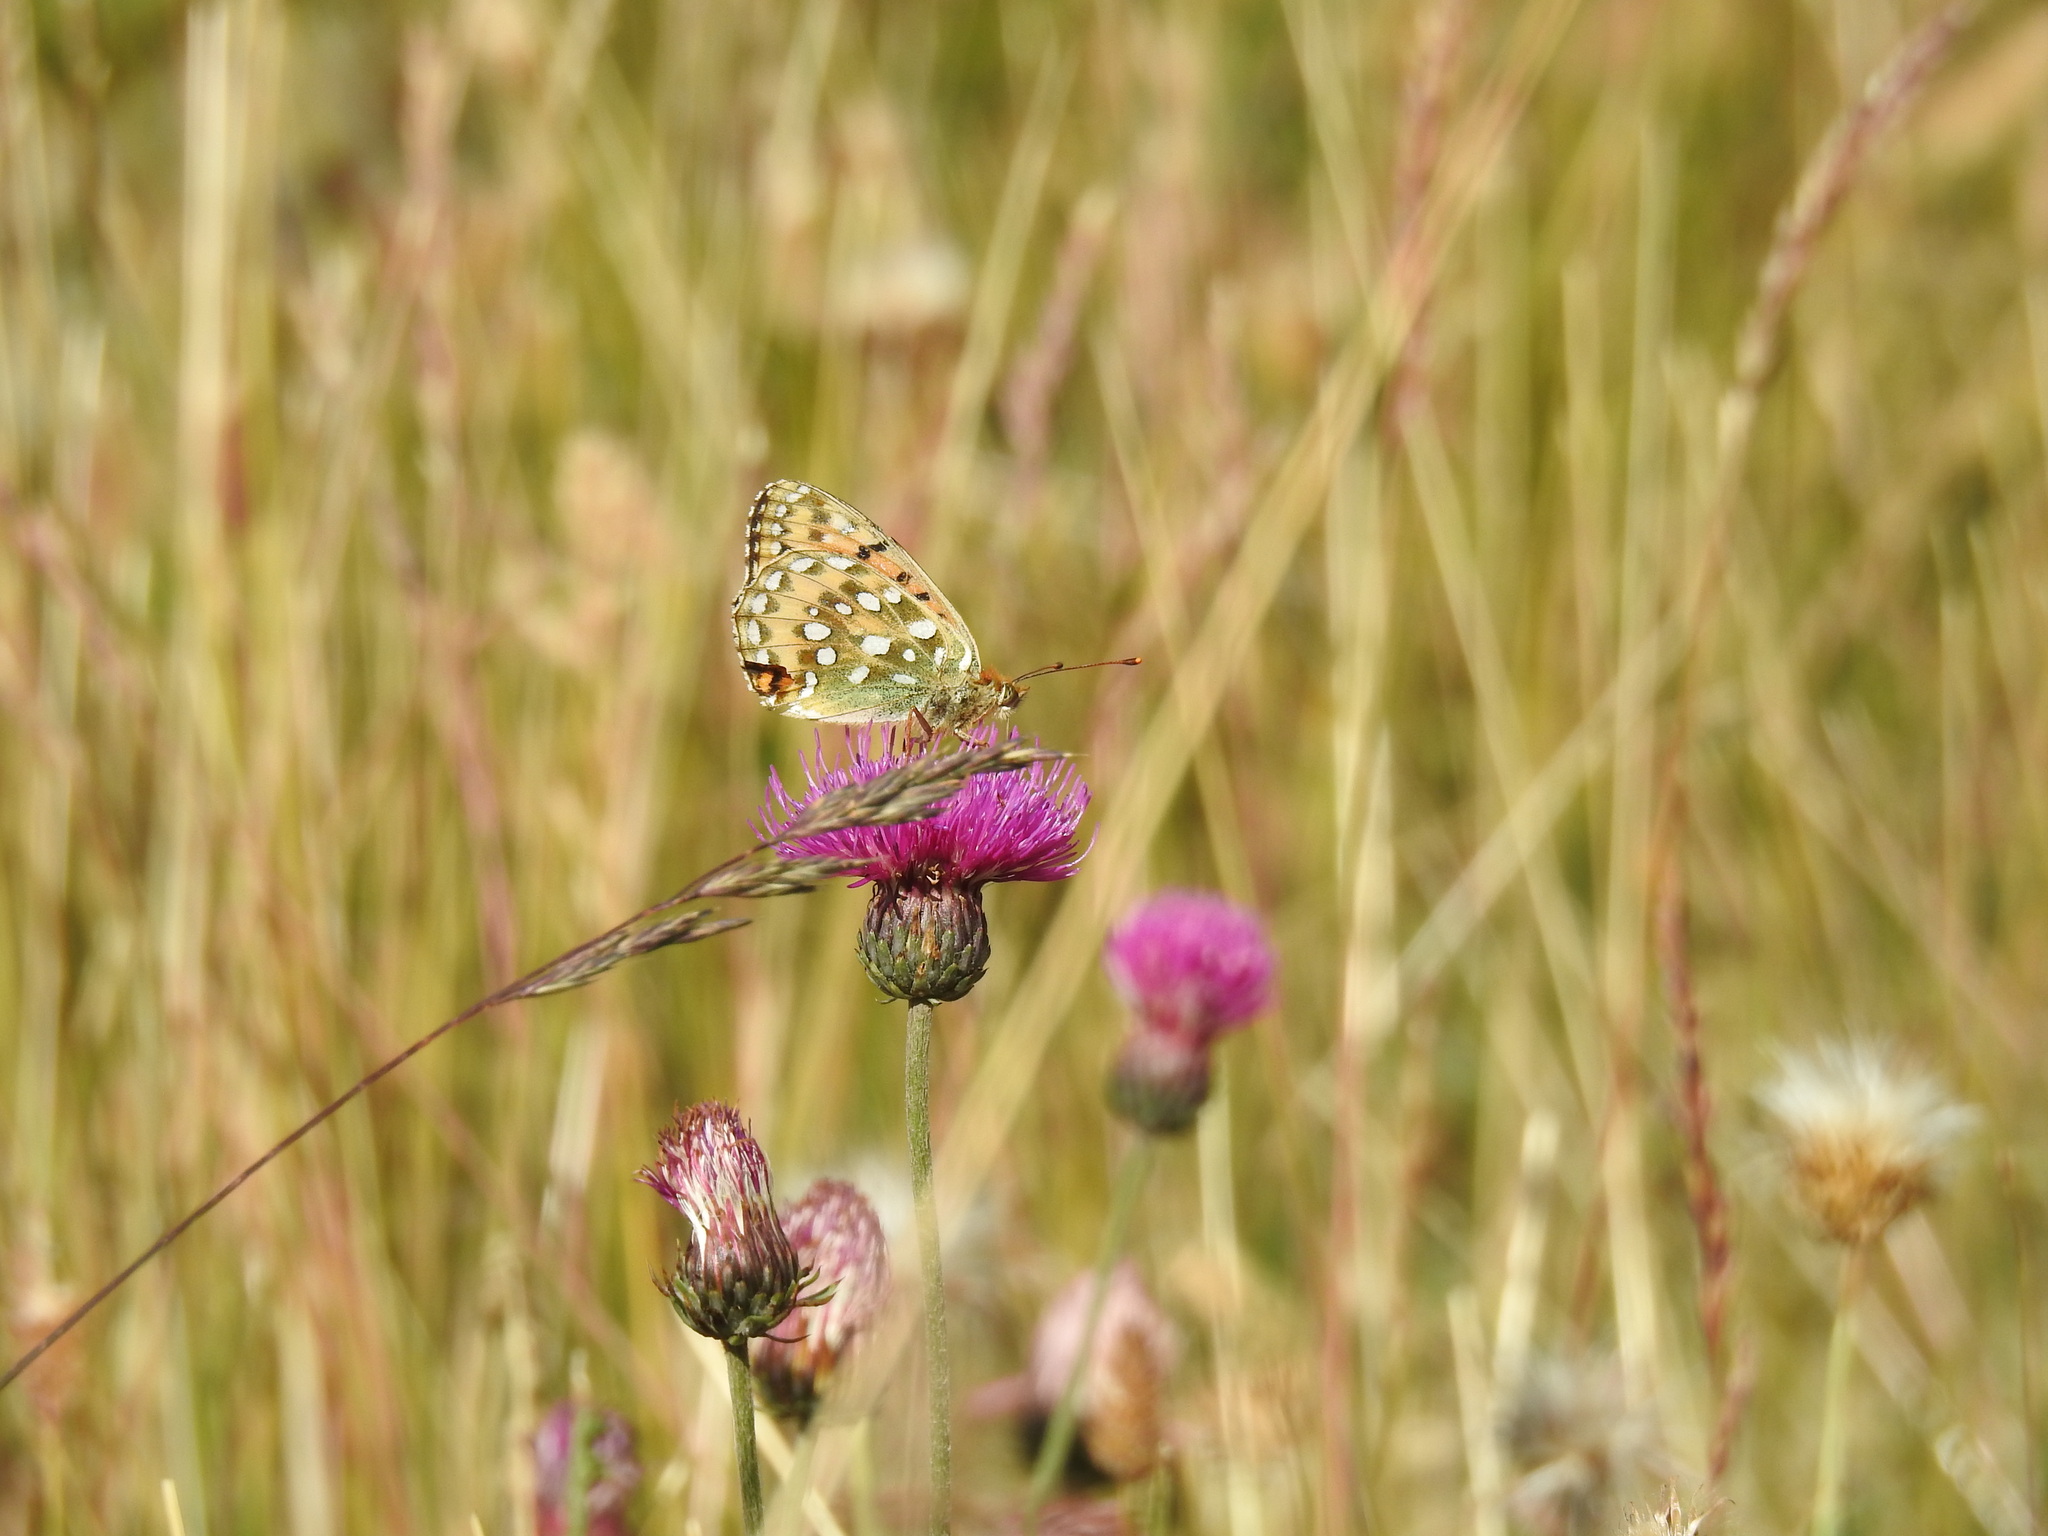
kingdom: Animalia
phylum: Arthropoda
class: Insecta
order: Lepidoptera
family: Nymphalidae
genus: Speyeria
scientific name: Speyeria aglaja
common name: Dark green fritillary
